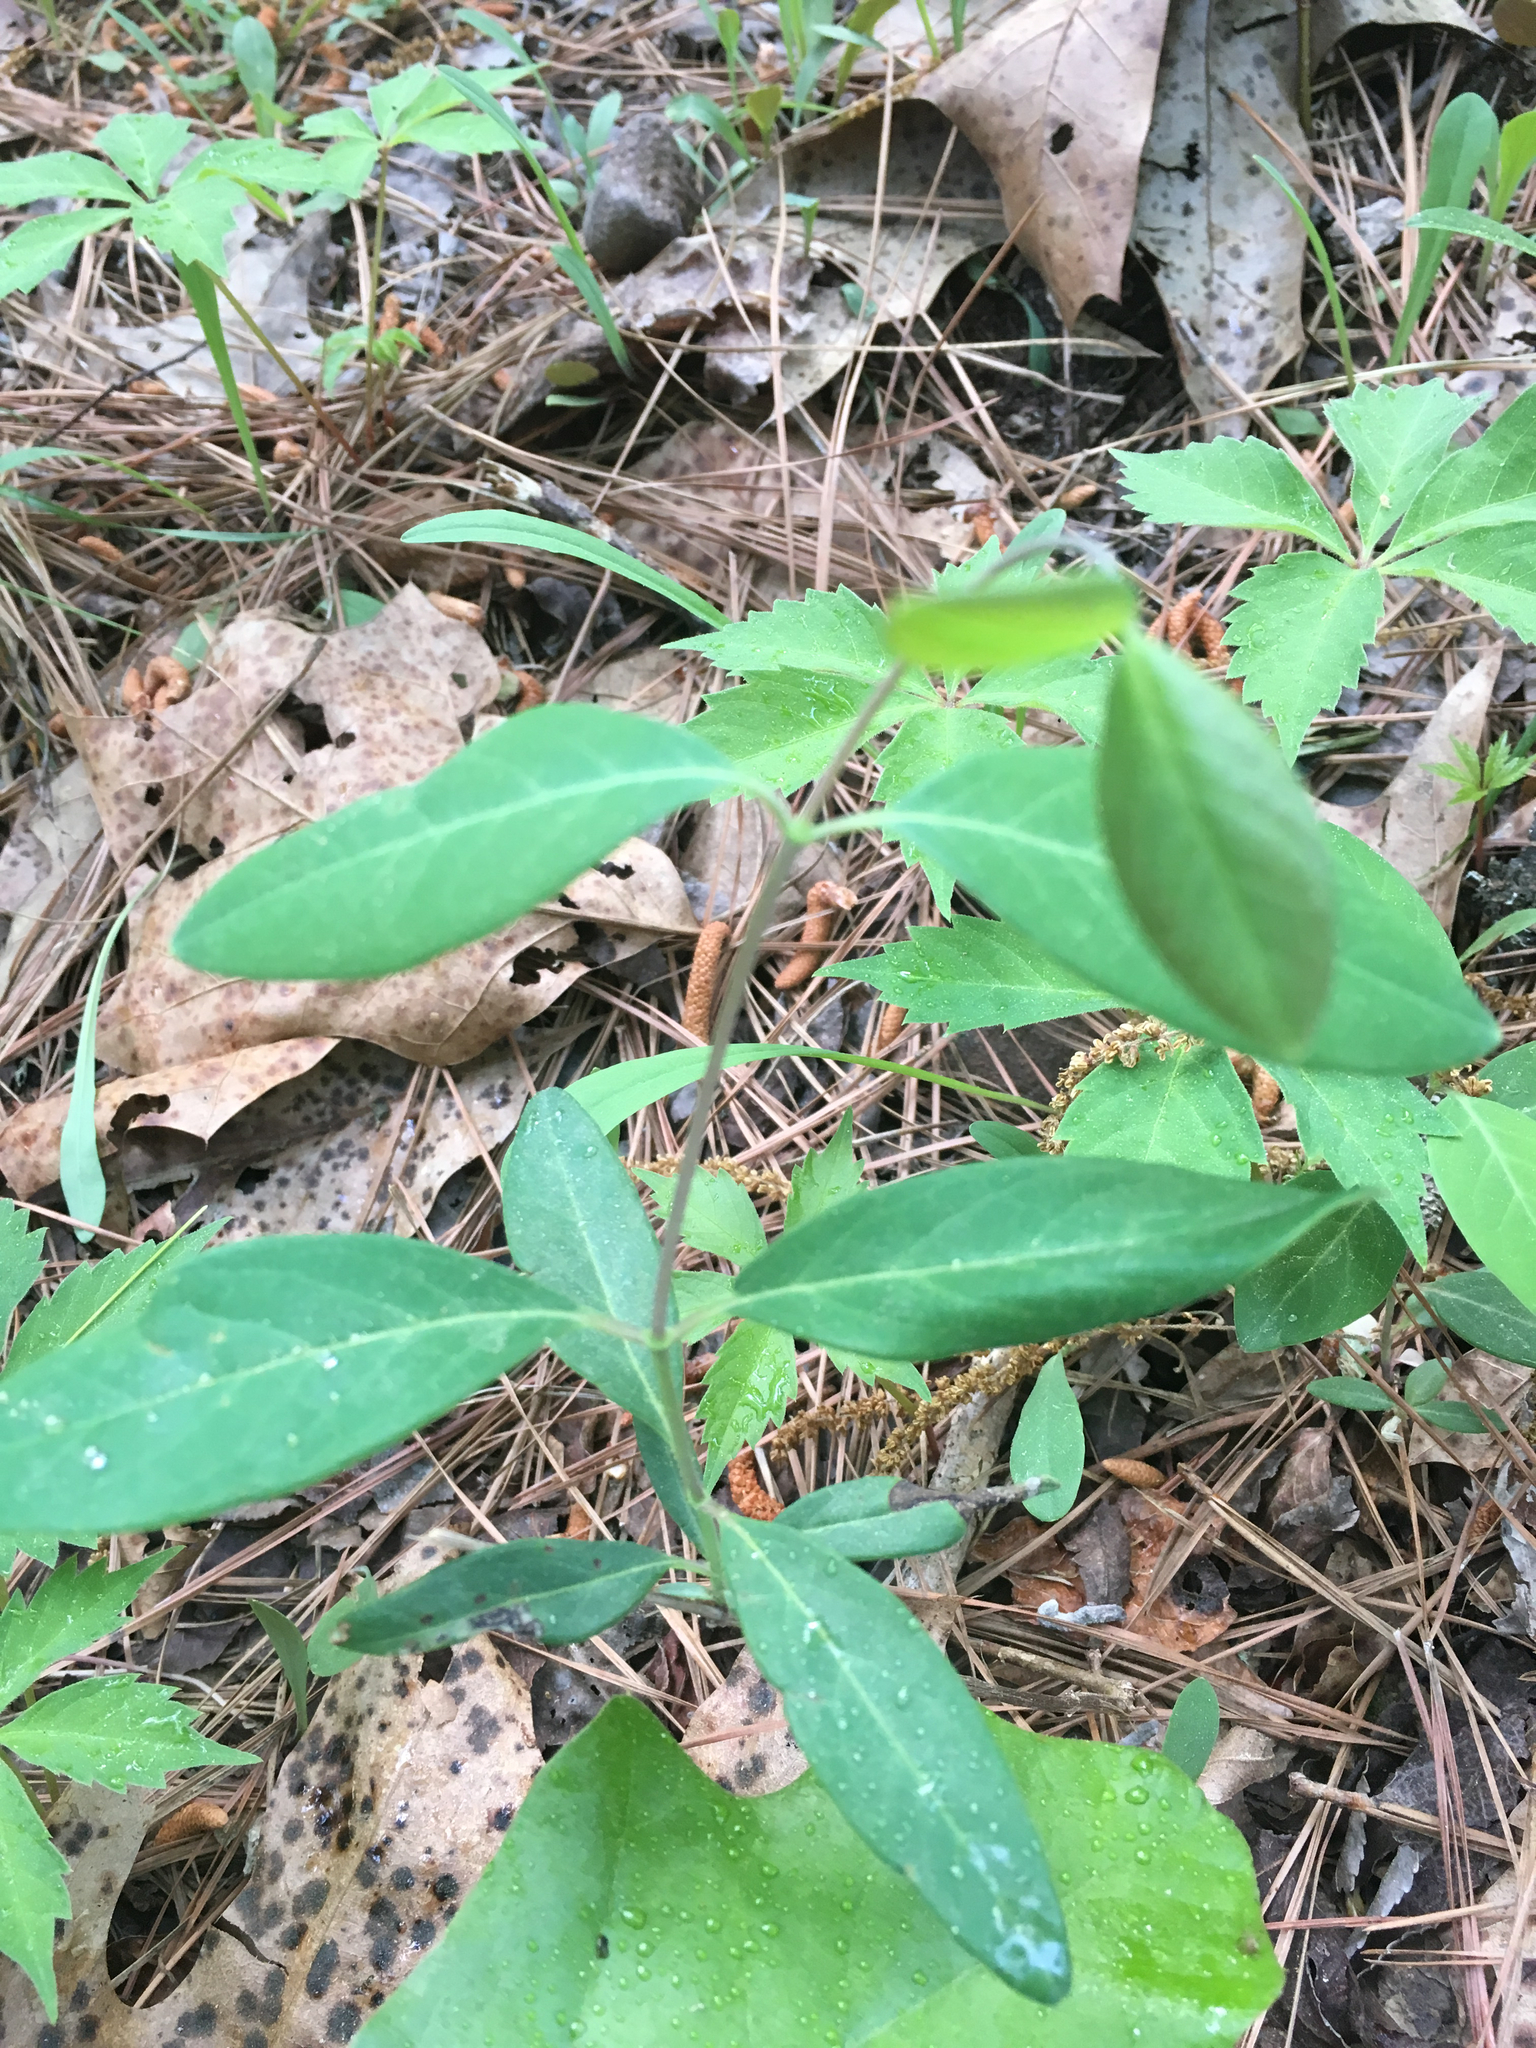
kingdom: Plantae
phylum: Tracheophyta
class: Magnoliopsida
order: Dipsacales
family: Caprifoliaceae
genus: Lonicera
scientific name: Lonicera sempervirens
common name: Coral honeysuckle
